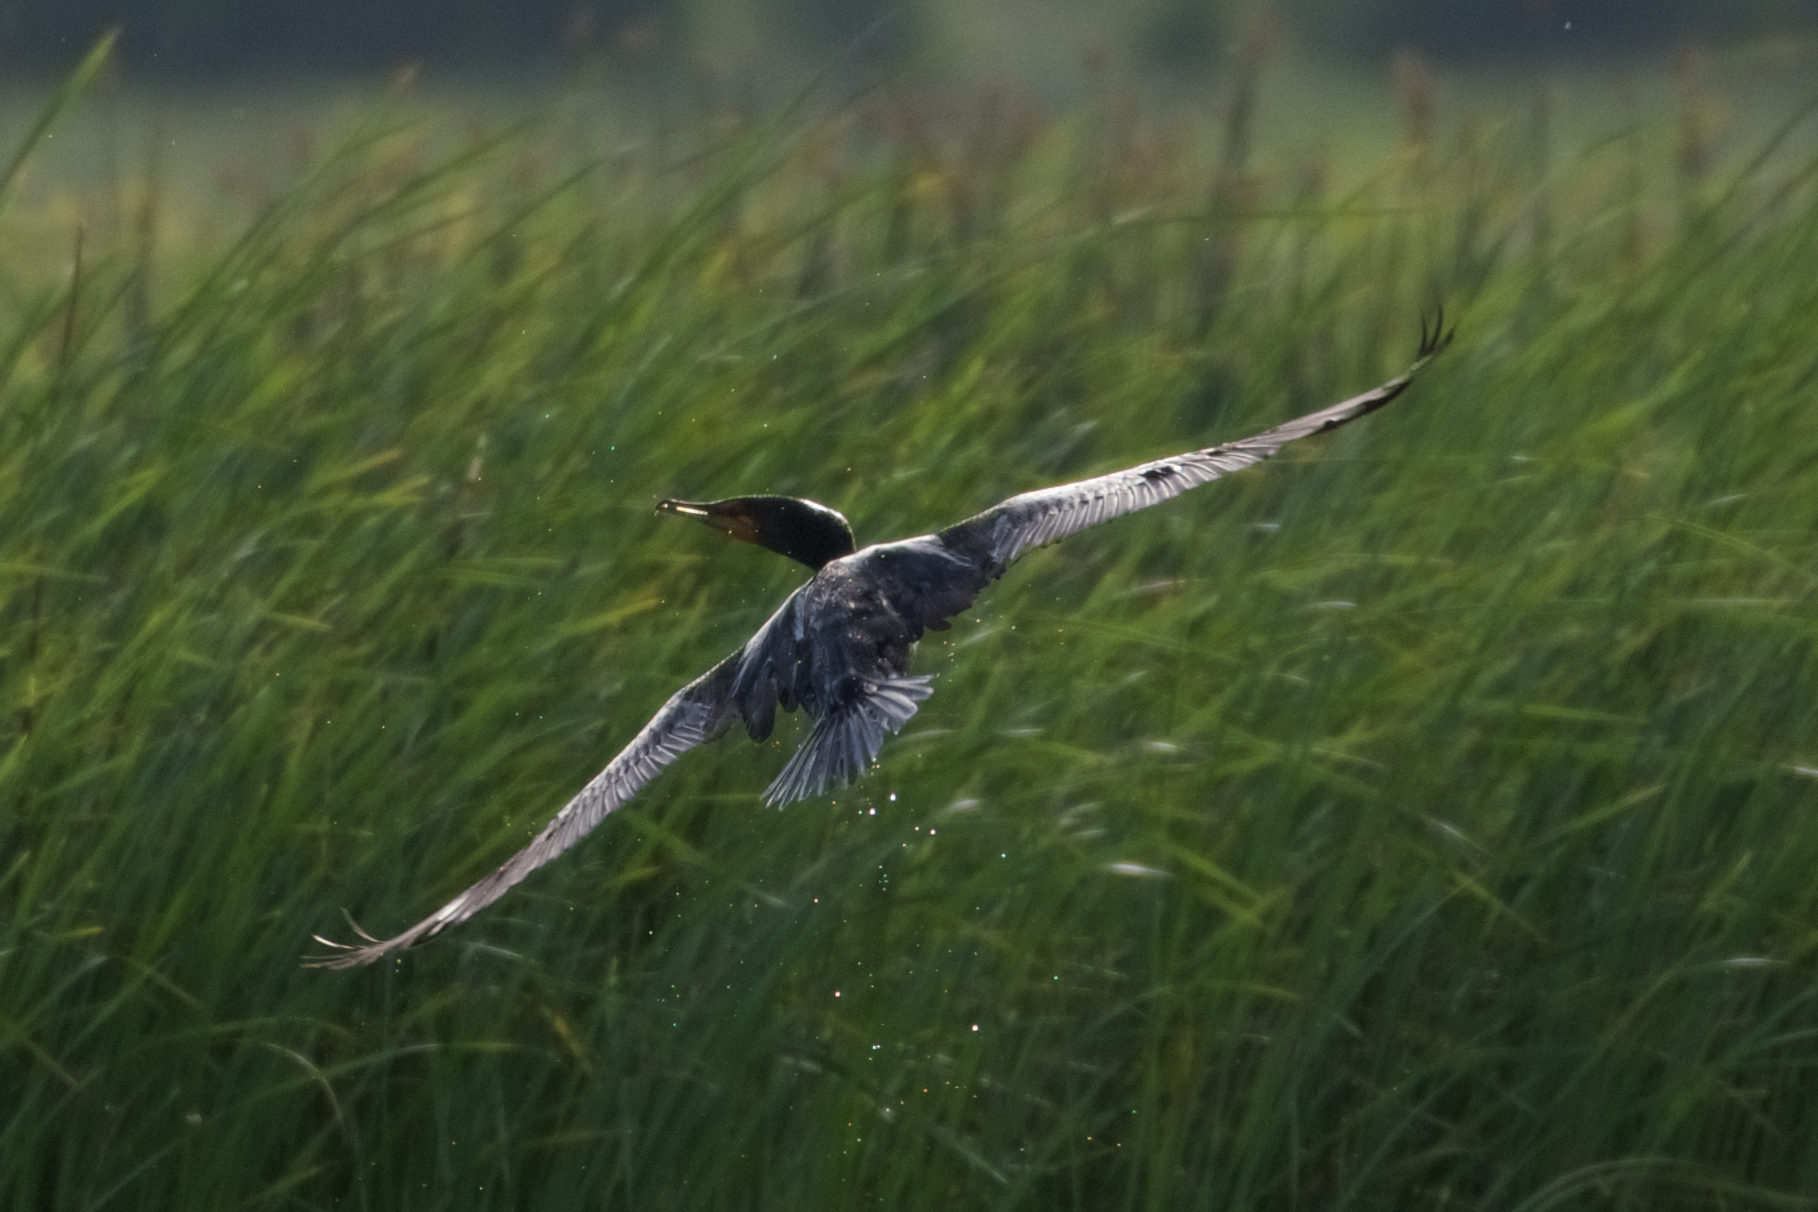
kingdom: Animalia
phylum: Chordata
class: Aves
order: Suliformes
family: Phalacrocoracidae
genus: Phalacrocorax
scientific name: Phalacrocorax auritus
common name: Double-crested cormorant
